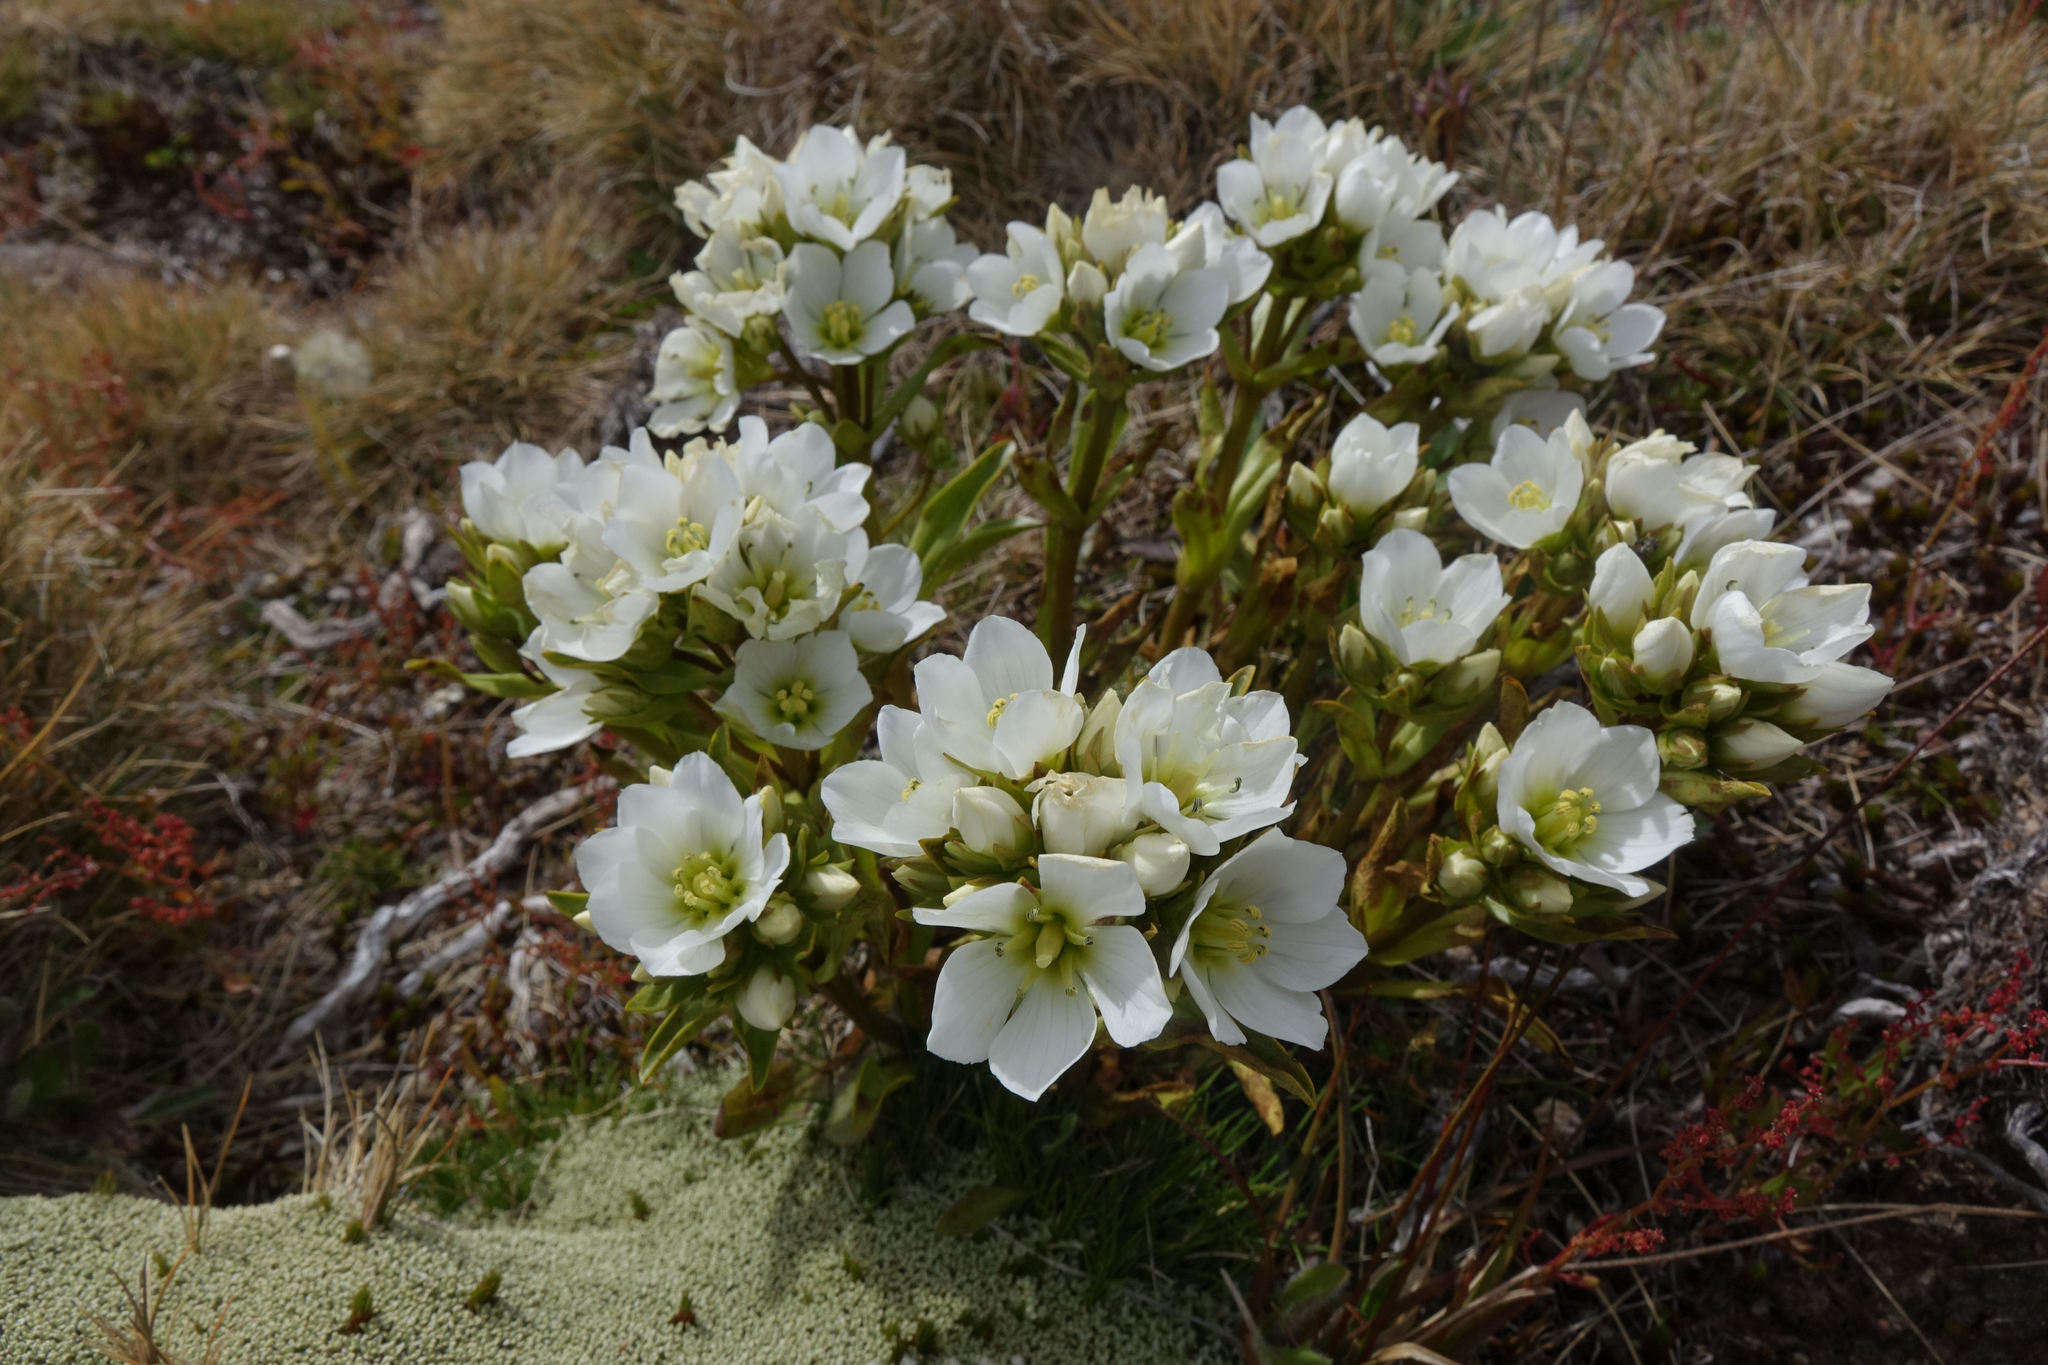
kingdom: Plantae
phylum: Tracheophyta
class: Magnoliopsida
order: Gentianales
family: Gentianaceae
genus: Gentianella
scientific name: Gentianella serotina
